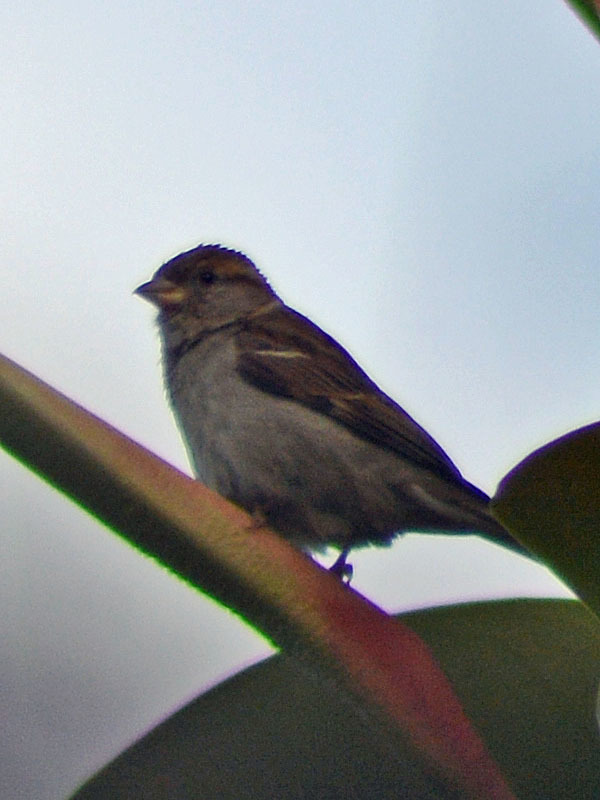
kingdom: Animalia
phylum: Chordata
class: Aves
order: Passeriformes
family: Passeridae
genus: Passer
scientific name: Passer domesticus
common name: House sparrow
